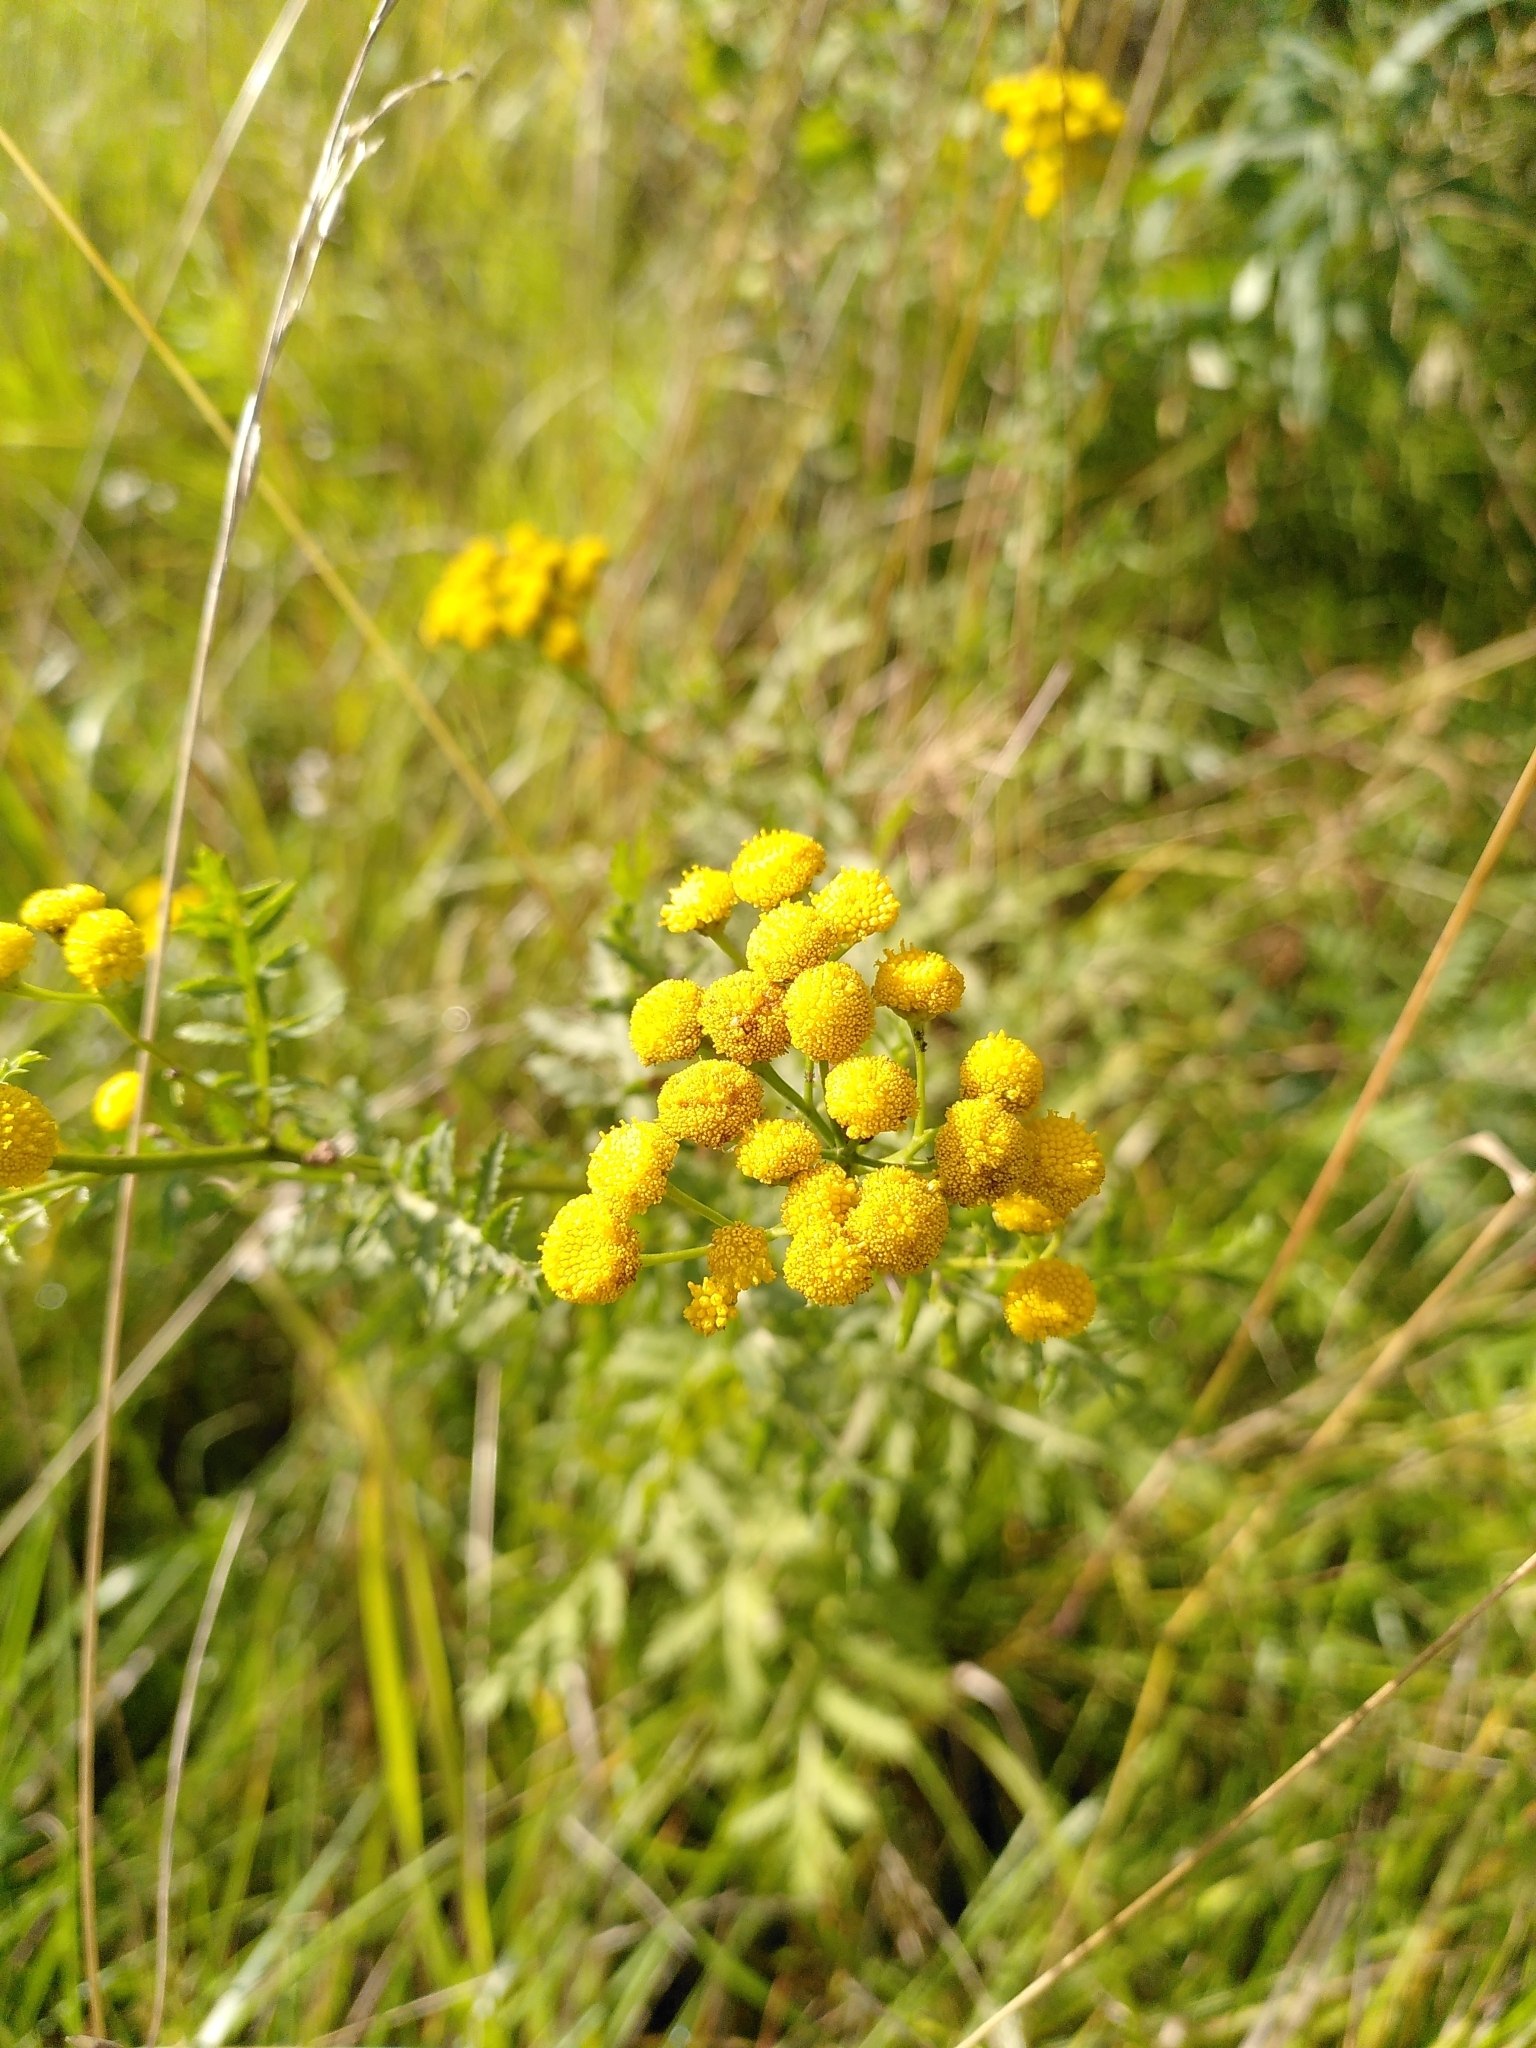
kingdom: Plantae
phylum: Tracheophyta
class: Magnoliopsida
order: Asterales
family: Asteraceae
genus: Tanacetum
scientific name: Tanacetum vulgare
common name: Common tansy
